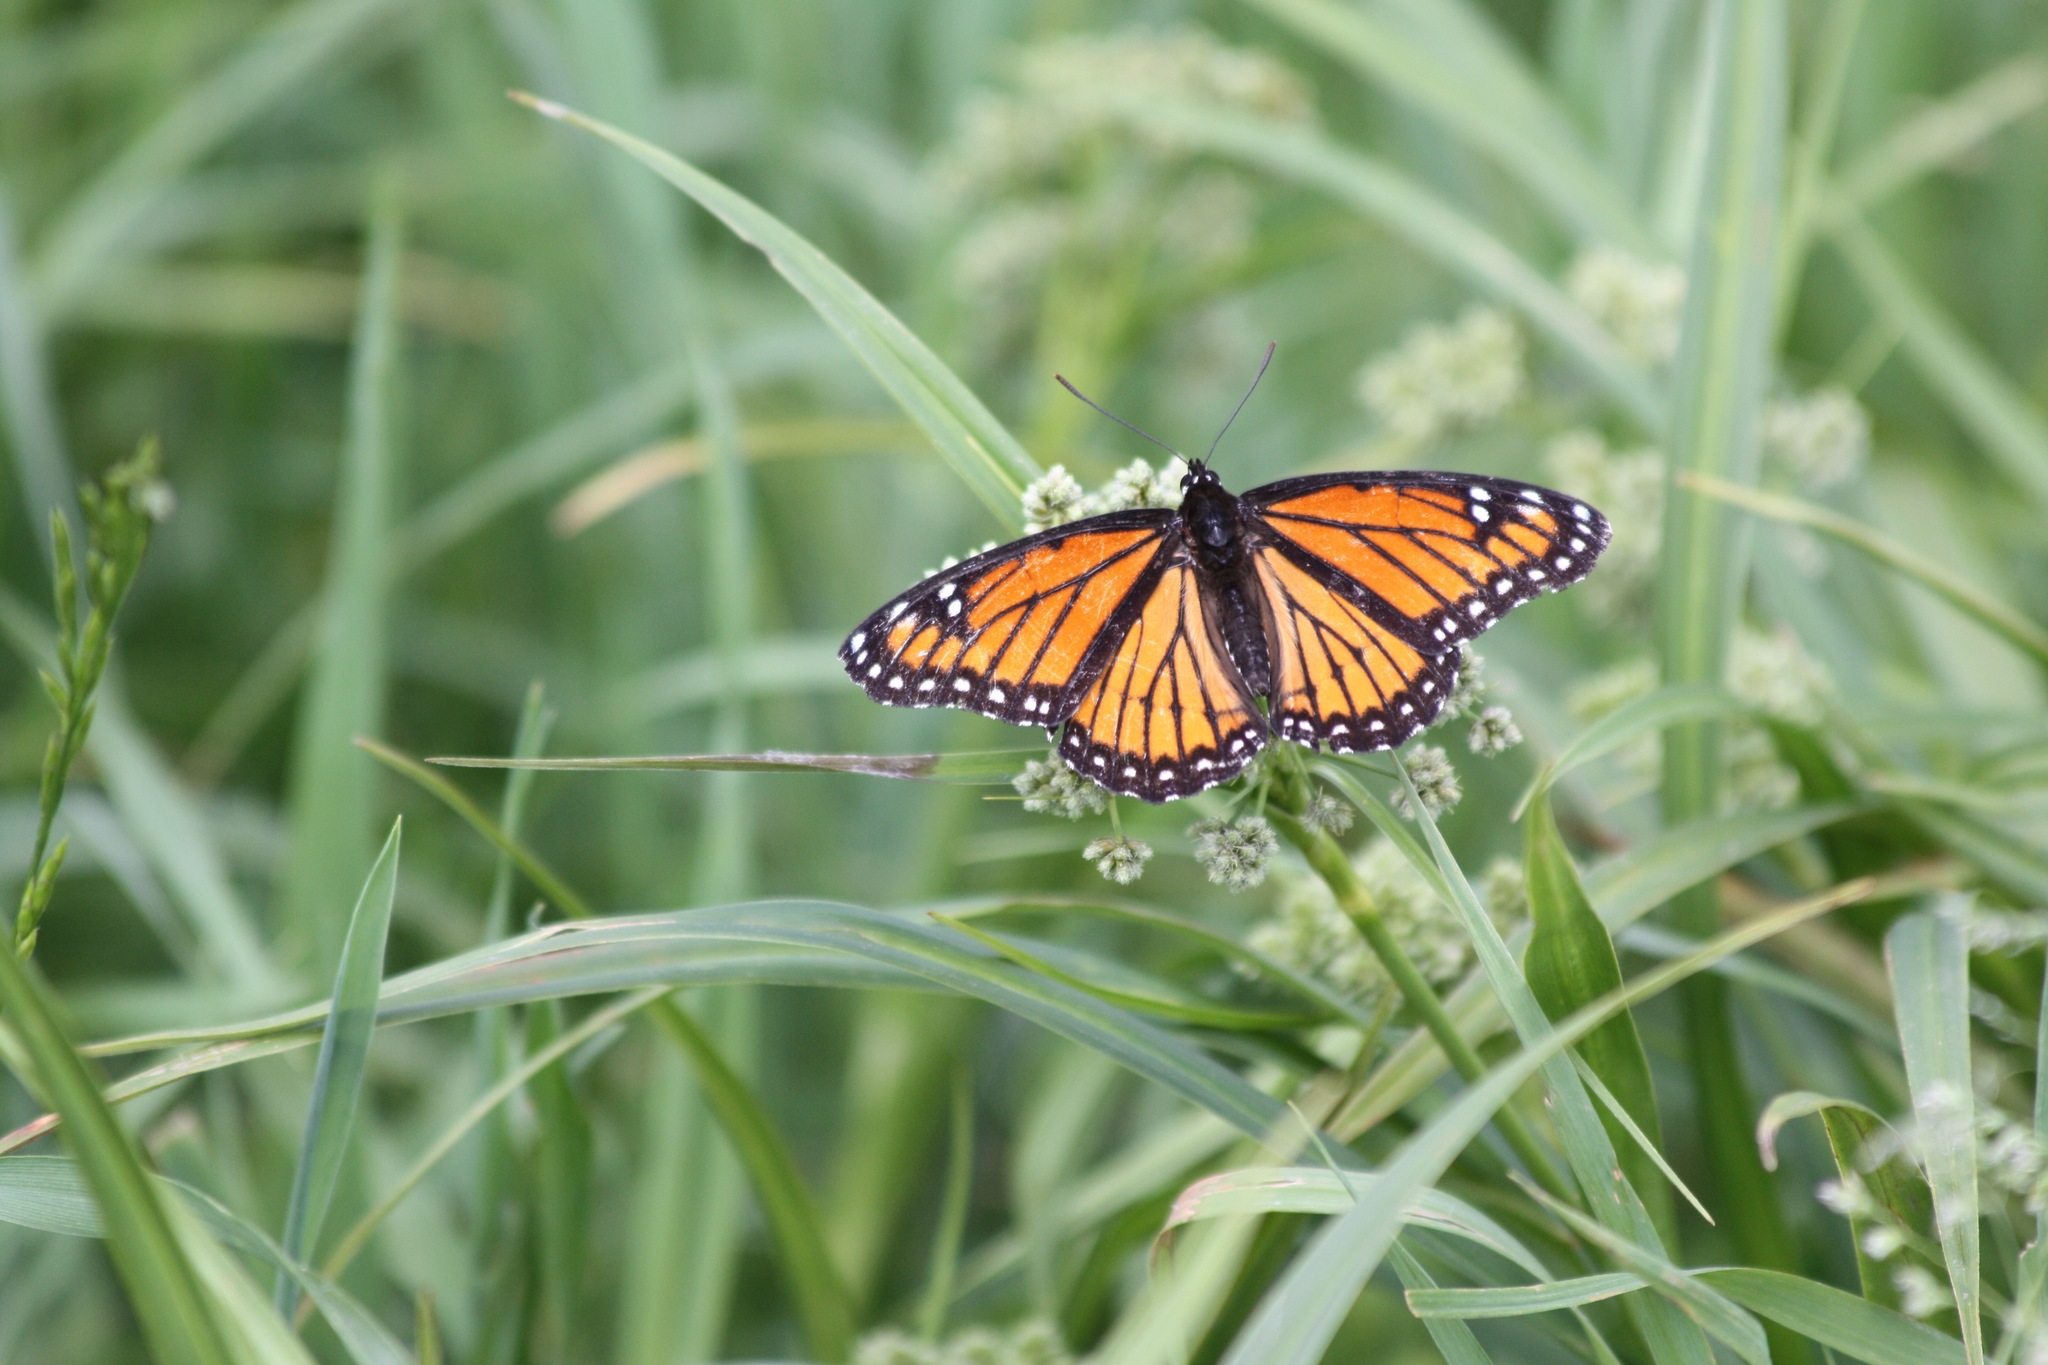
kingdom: Animalia
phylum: Arthropoda
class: Insecta
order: Lepidoptera
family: Nymphalidae
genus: Limenitis
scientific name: Limenitis archippus
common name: Viceroy
